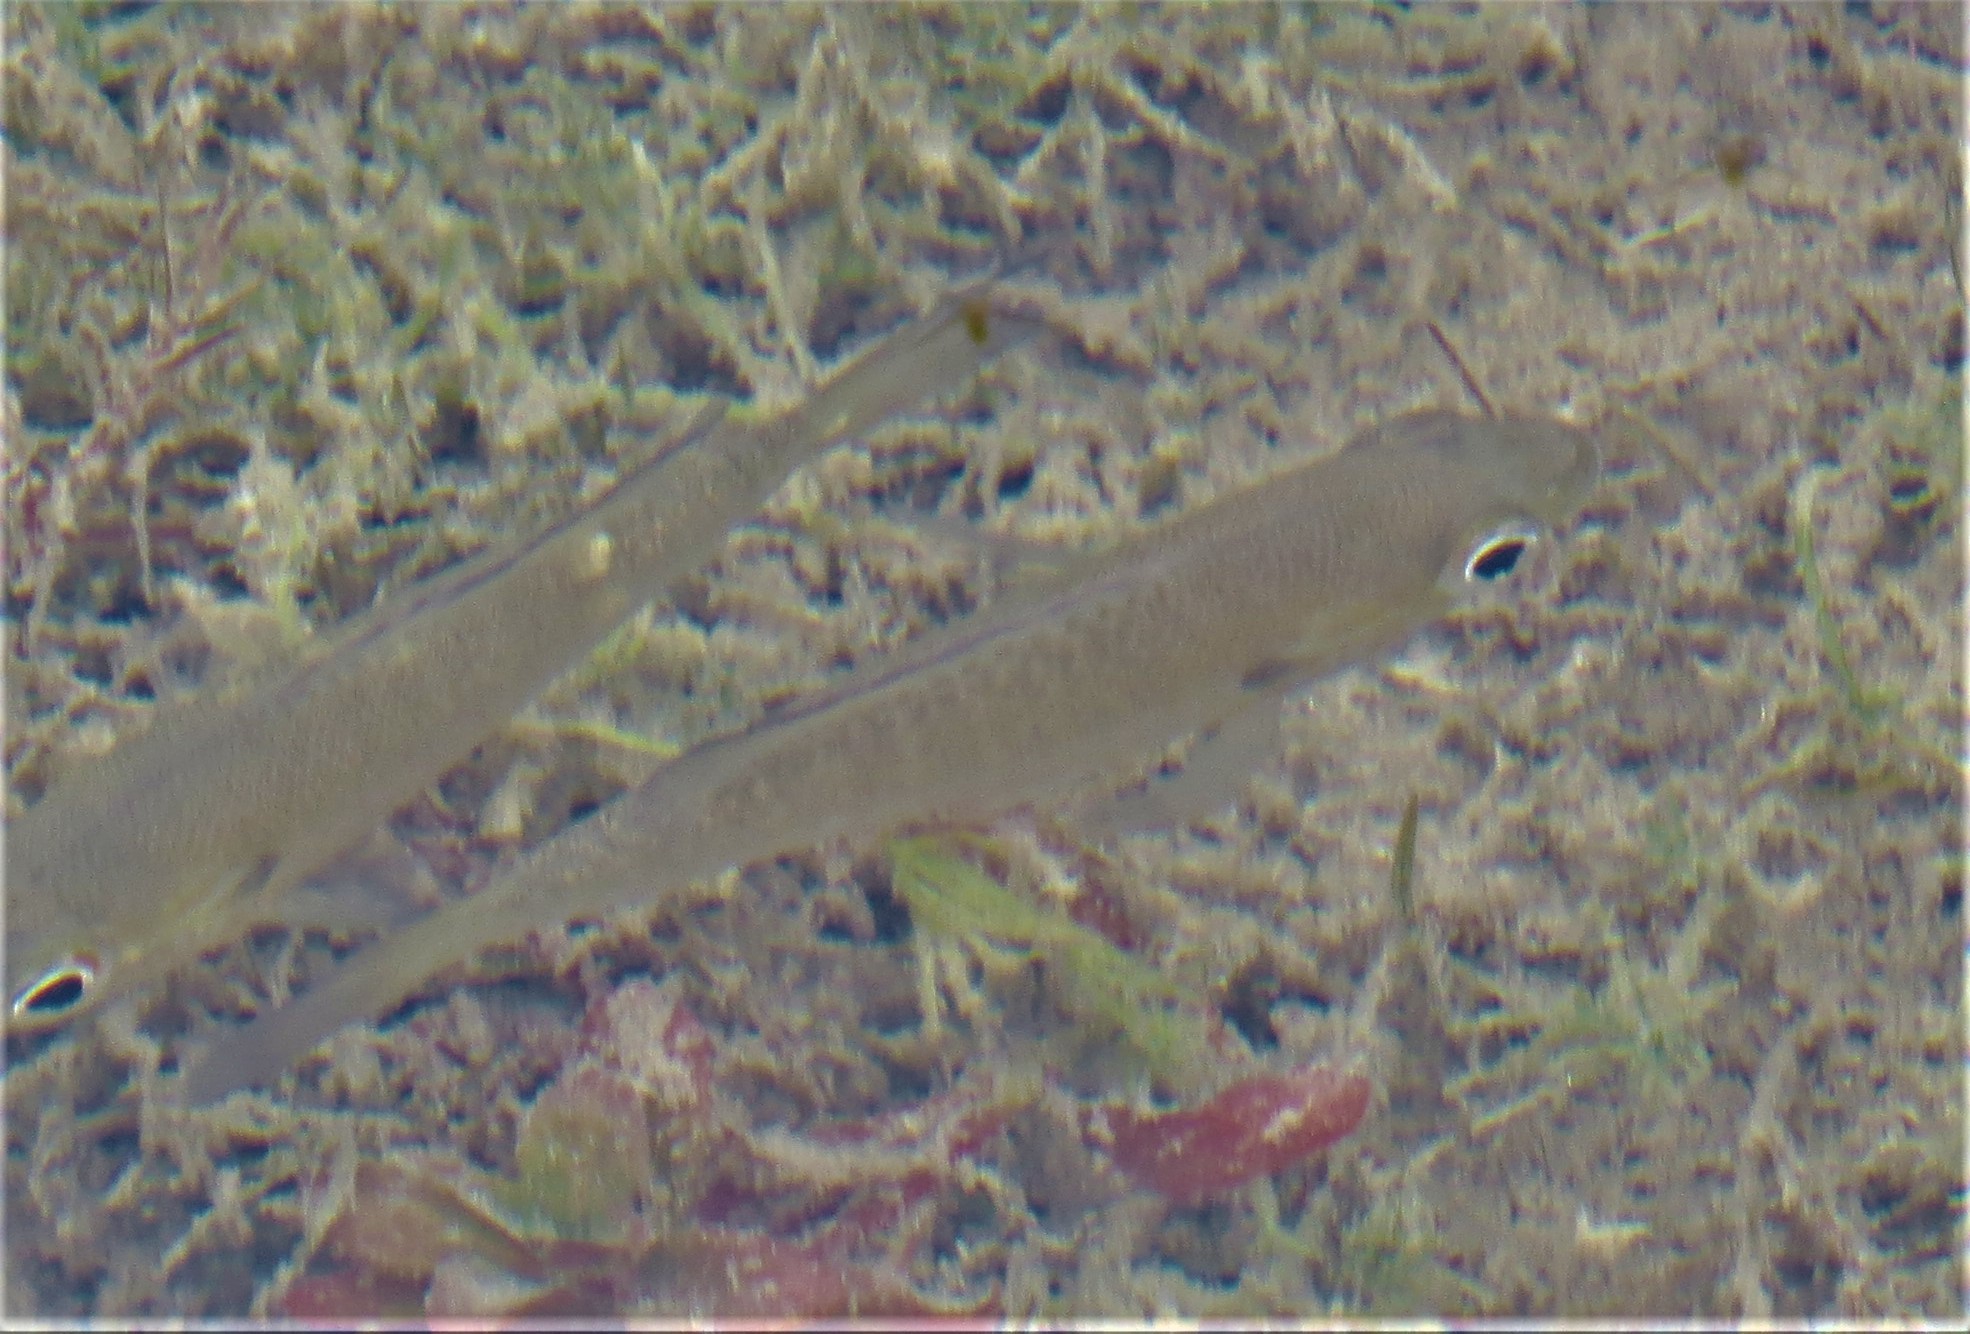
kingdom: Animalia
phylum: Chordata
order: Perciformes
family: Centrarchidae
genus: Lepomis
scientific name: Lepomis macrochirus
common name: Bluegill
